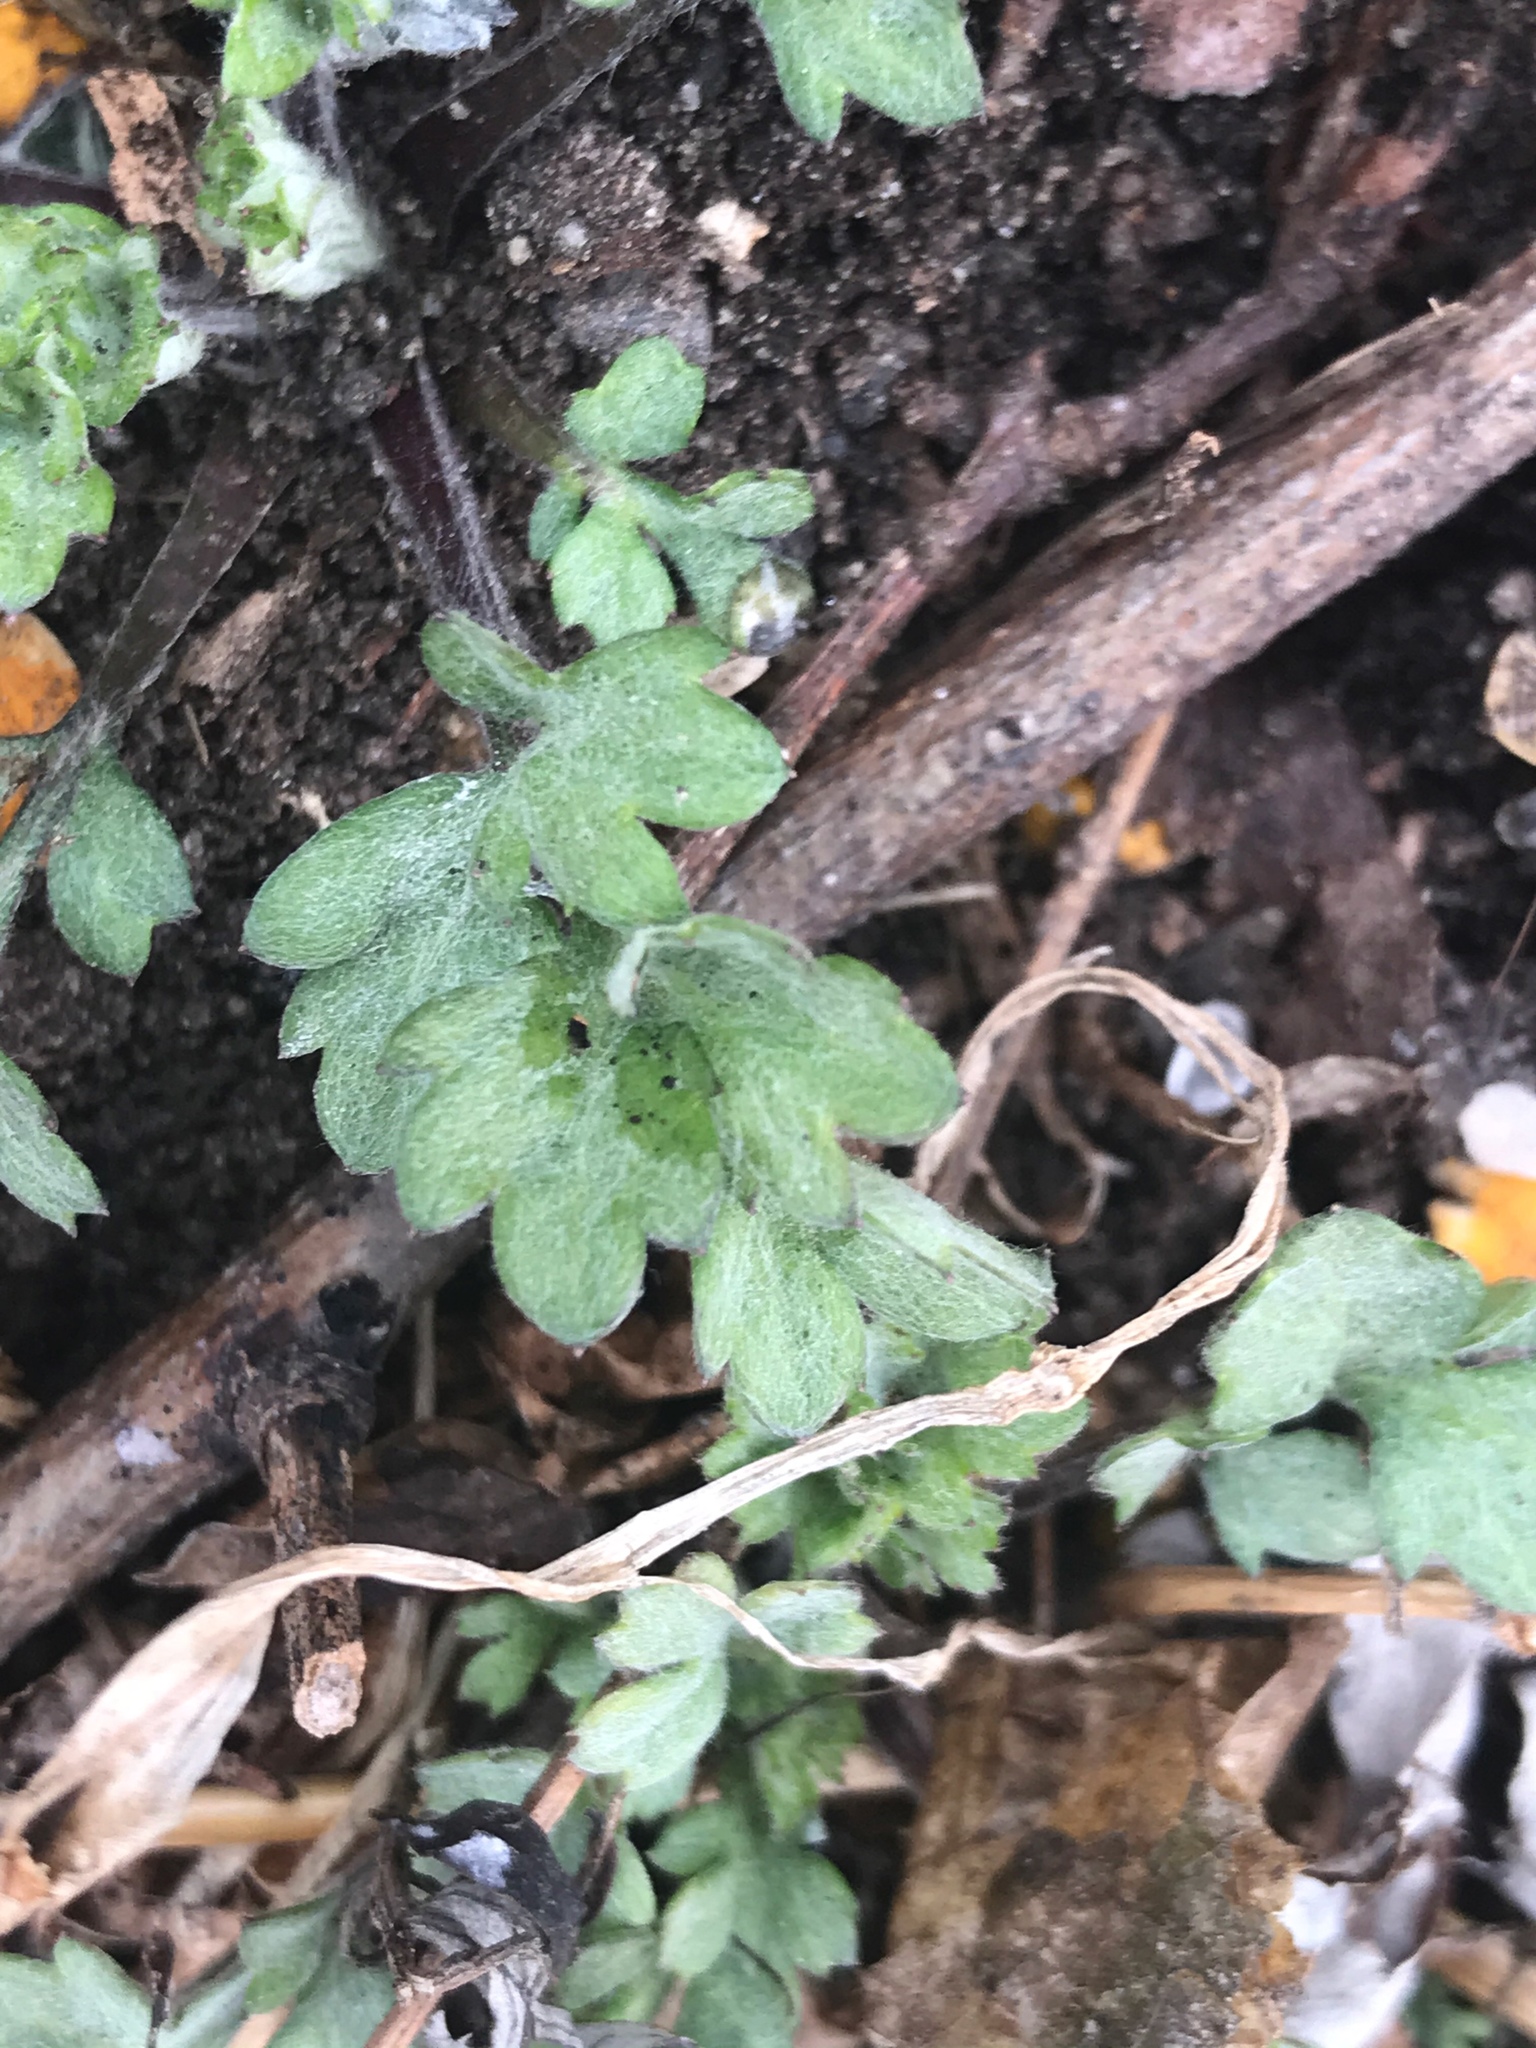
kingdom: Plantae
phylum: Tracheophyta
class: Magnoliopsida
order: Asterales
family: Asteraceae
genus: Artemisia
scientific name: Artemisia vulgaris
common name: Mugwort
